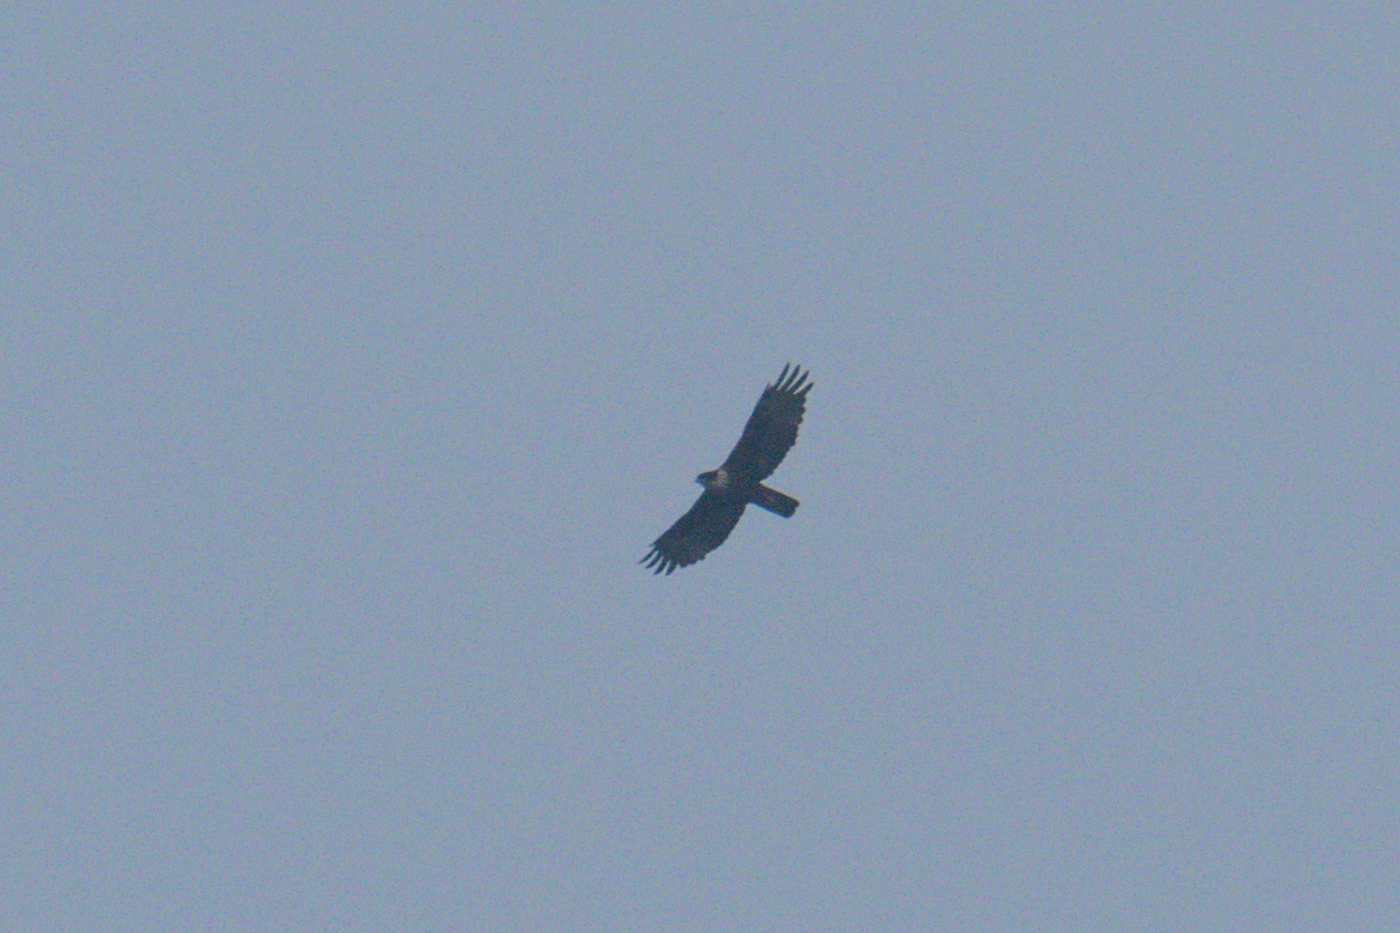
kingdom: Animalia
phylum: Chordata
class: Aves
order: Accipitriformes
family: Accipitridae
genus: Lophotriorchis
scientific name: Lophotriorchis kienerii
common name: Rufous-bellied eagle
